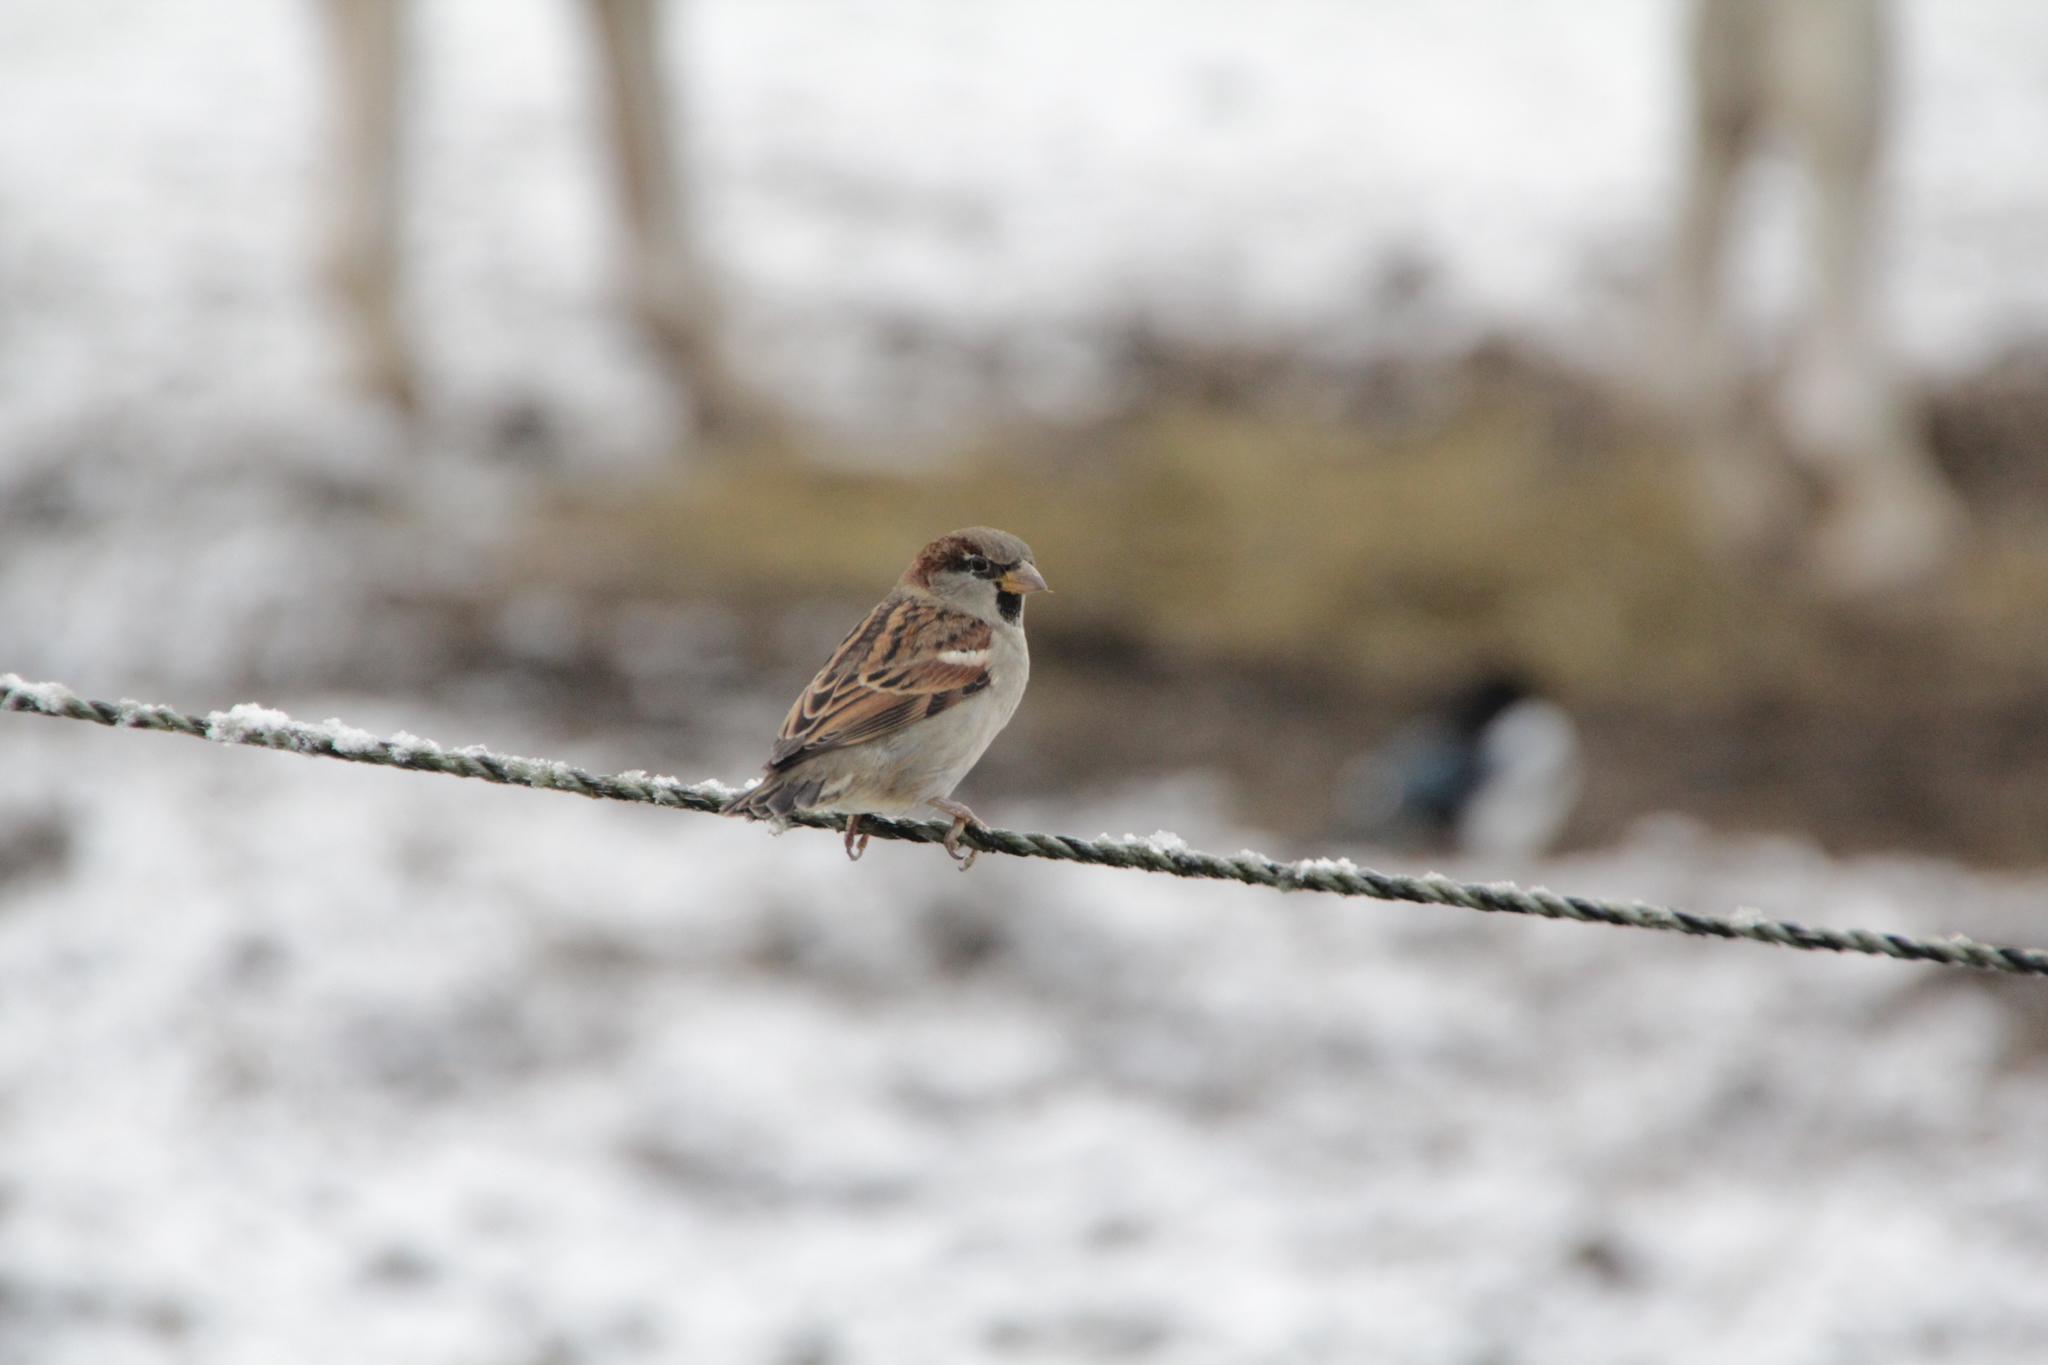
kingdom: Animalia
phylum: Chordata
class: Aves
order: Passeriformes
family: Passeridae
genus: Passer
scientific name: Passer domesticus
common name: House sparrow
